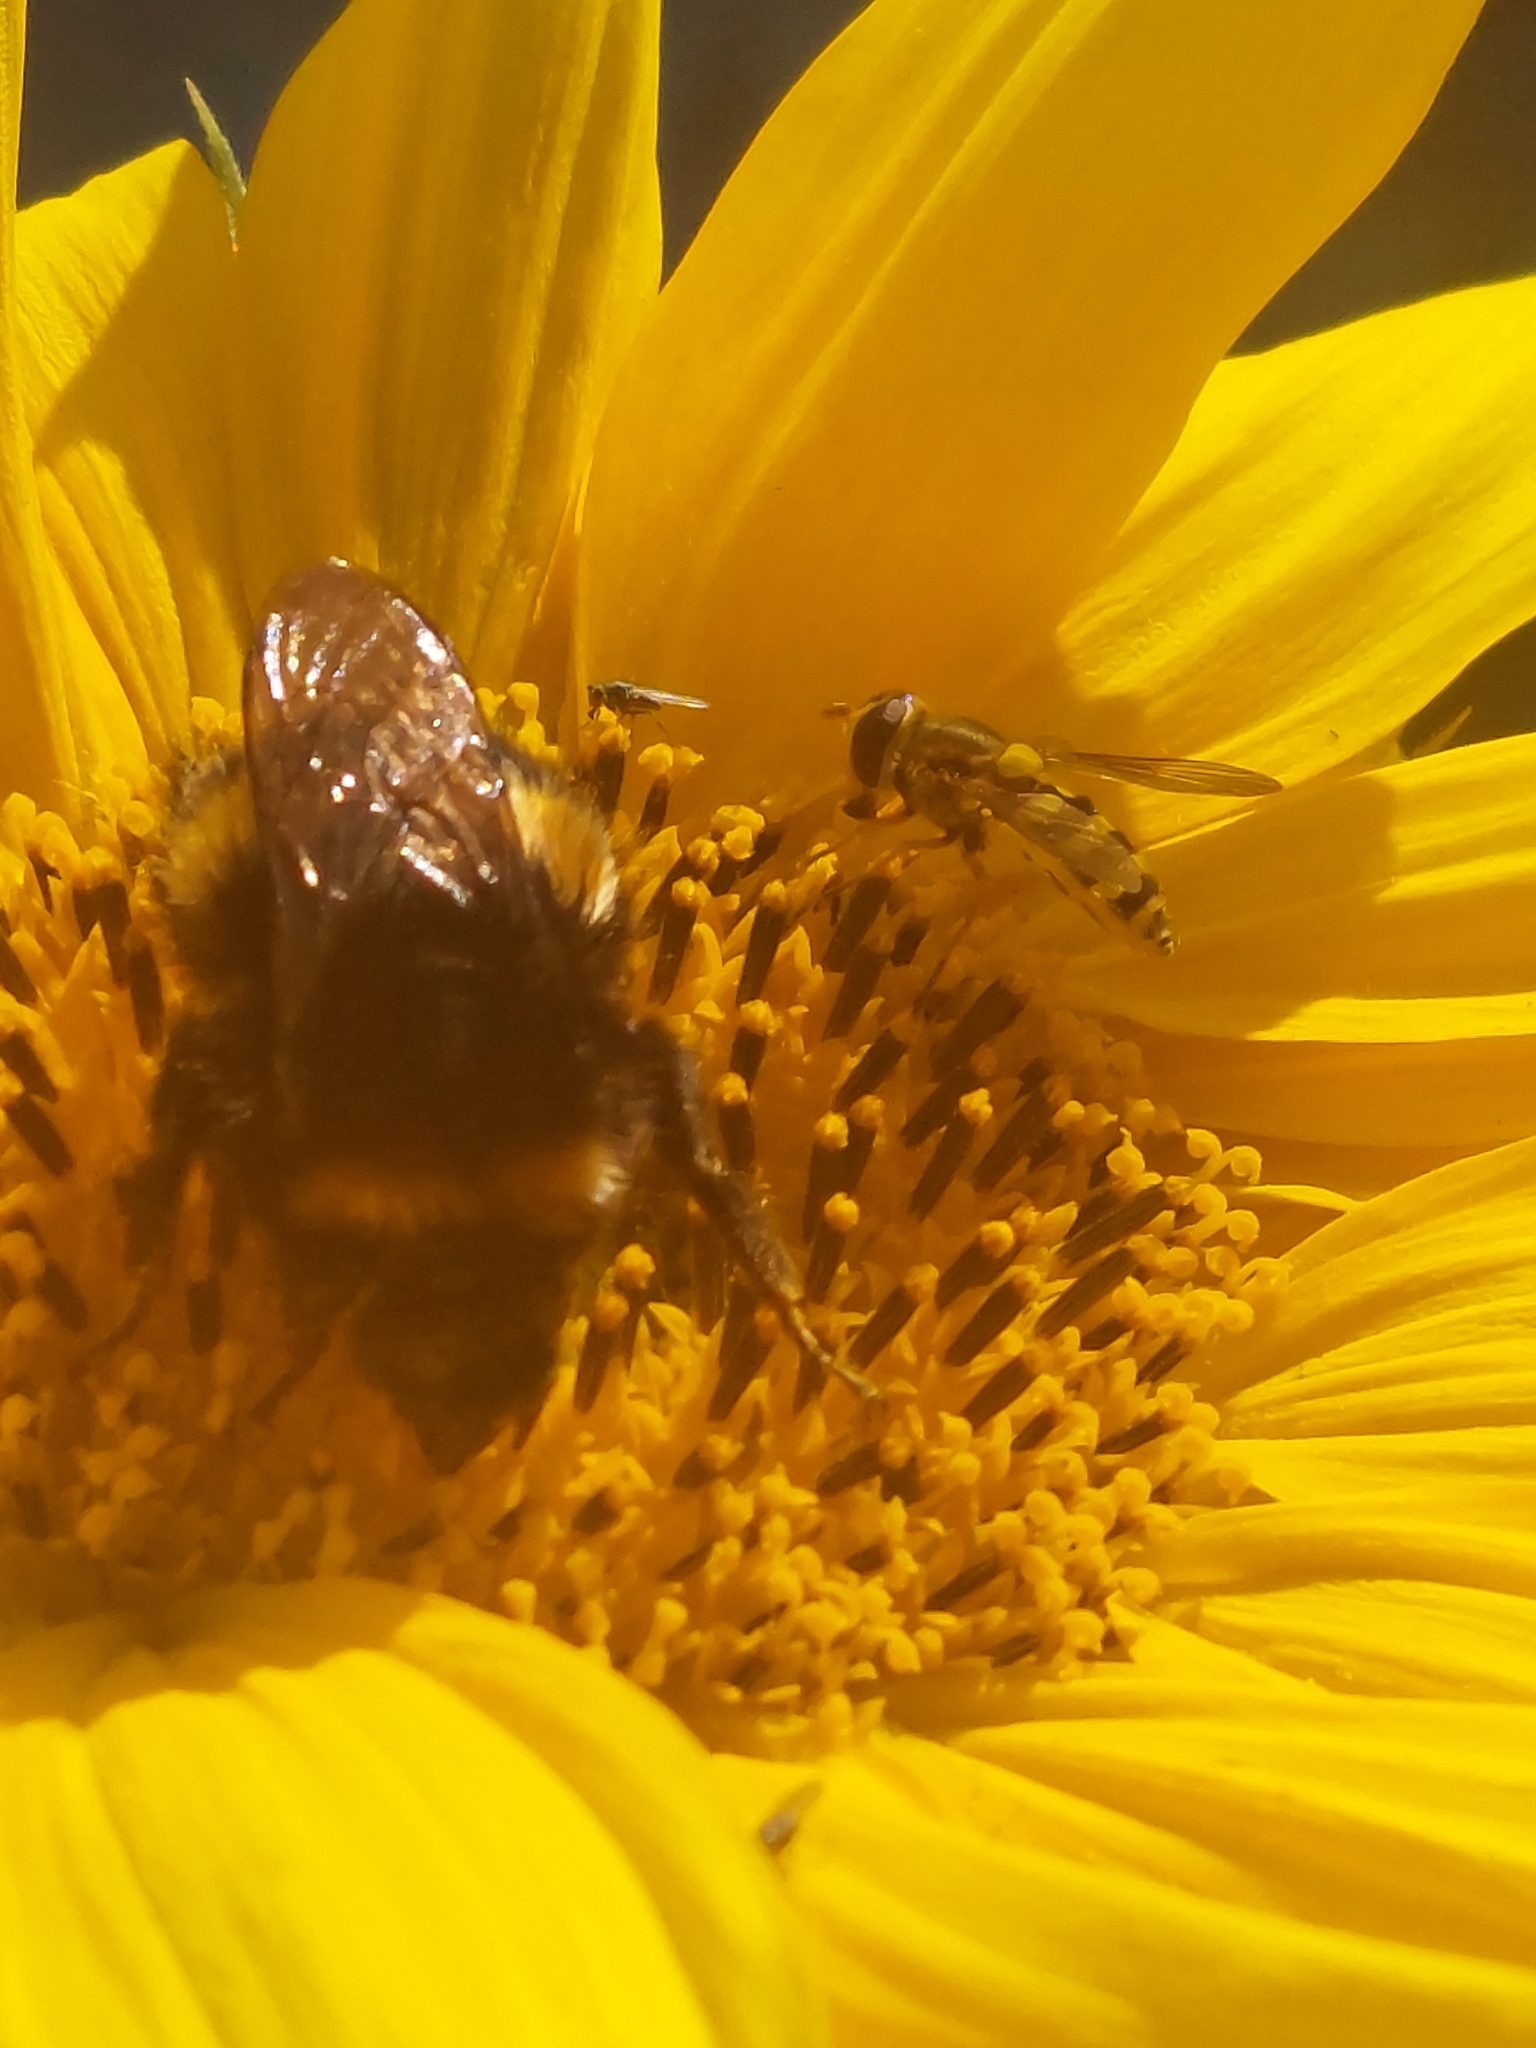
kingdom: Animalia
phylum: Arthropoda
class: Insecta
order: Diptera
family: Syrphidae
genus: Syrphus
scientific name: Syrphus ribesii
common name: Common flower fly
